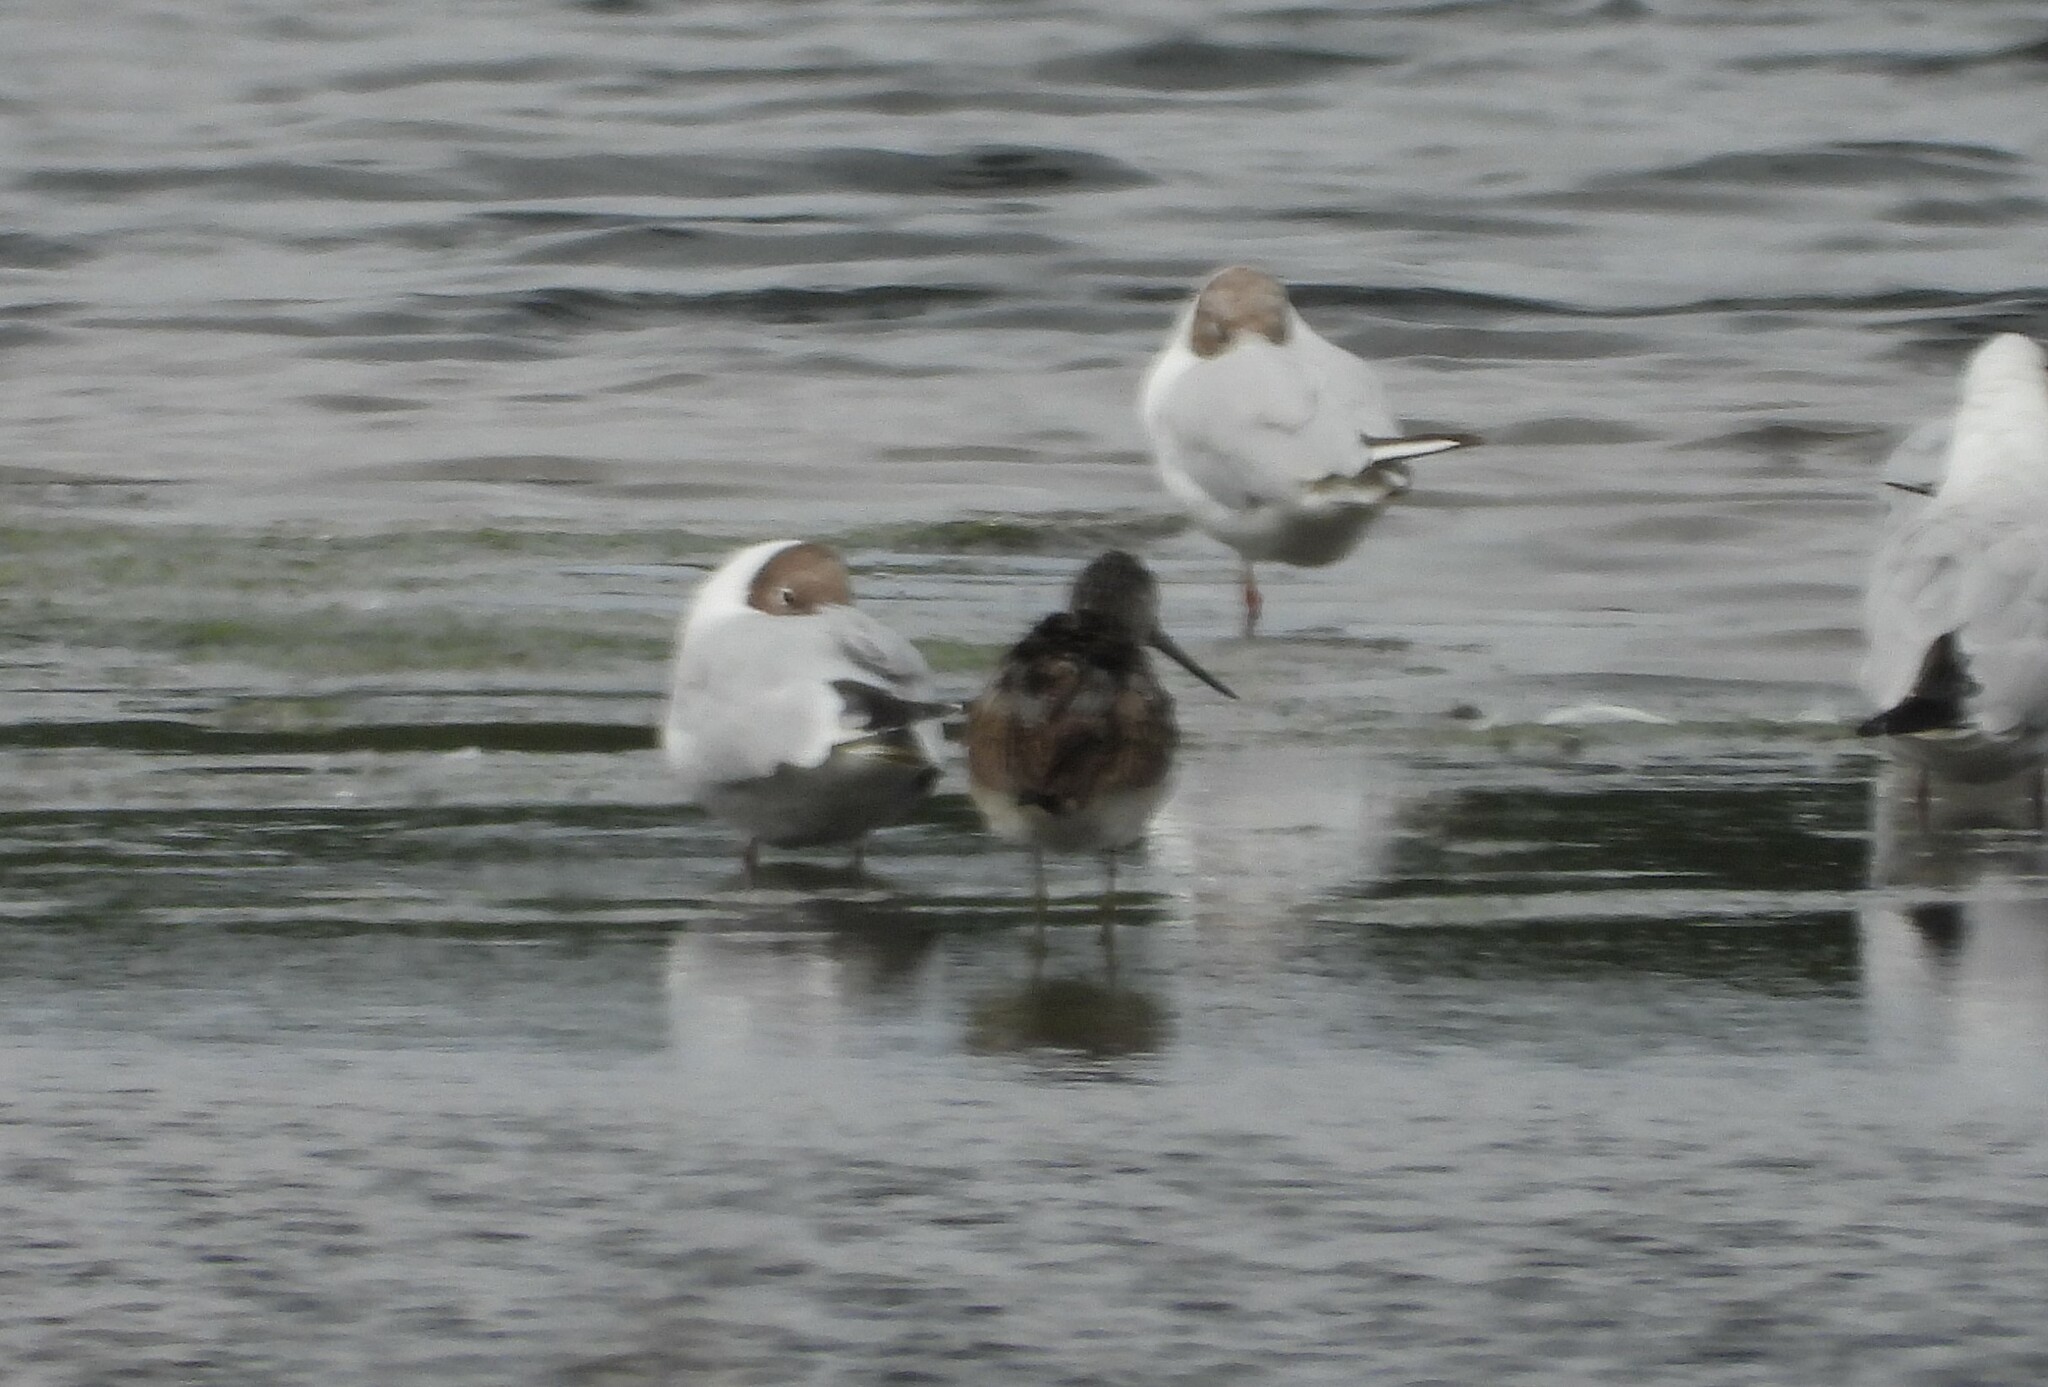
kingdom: Animalia
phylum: Chordata
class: Aves
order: Charadriiformes
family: Scolopacidae
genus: Tringa
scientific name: Tringa nebularia
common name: Common greenshank
